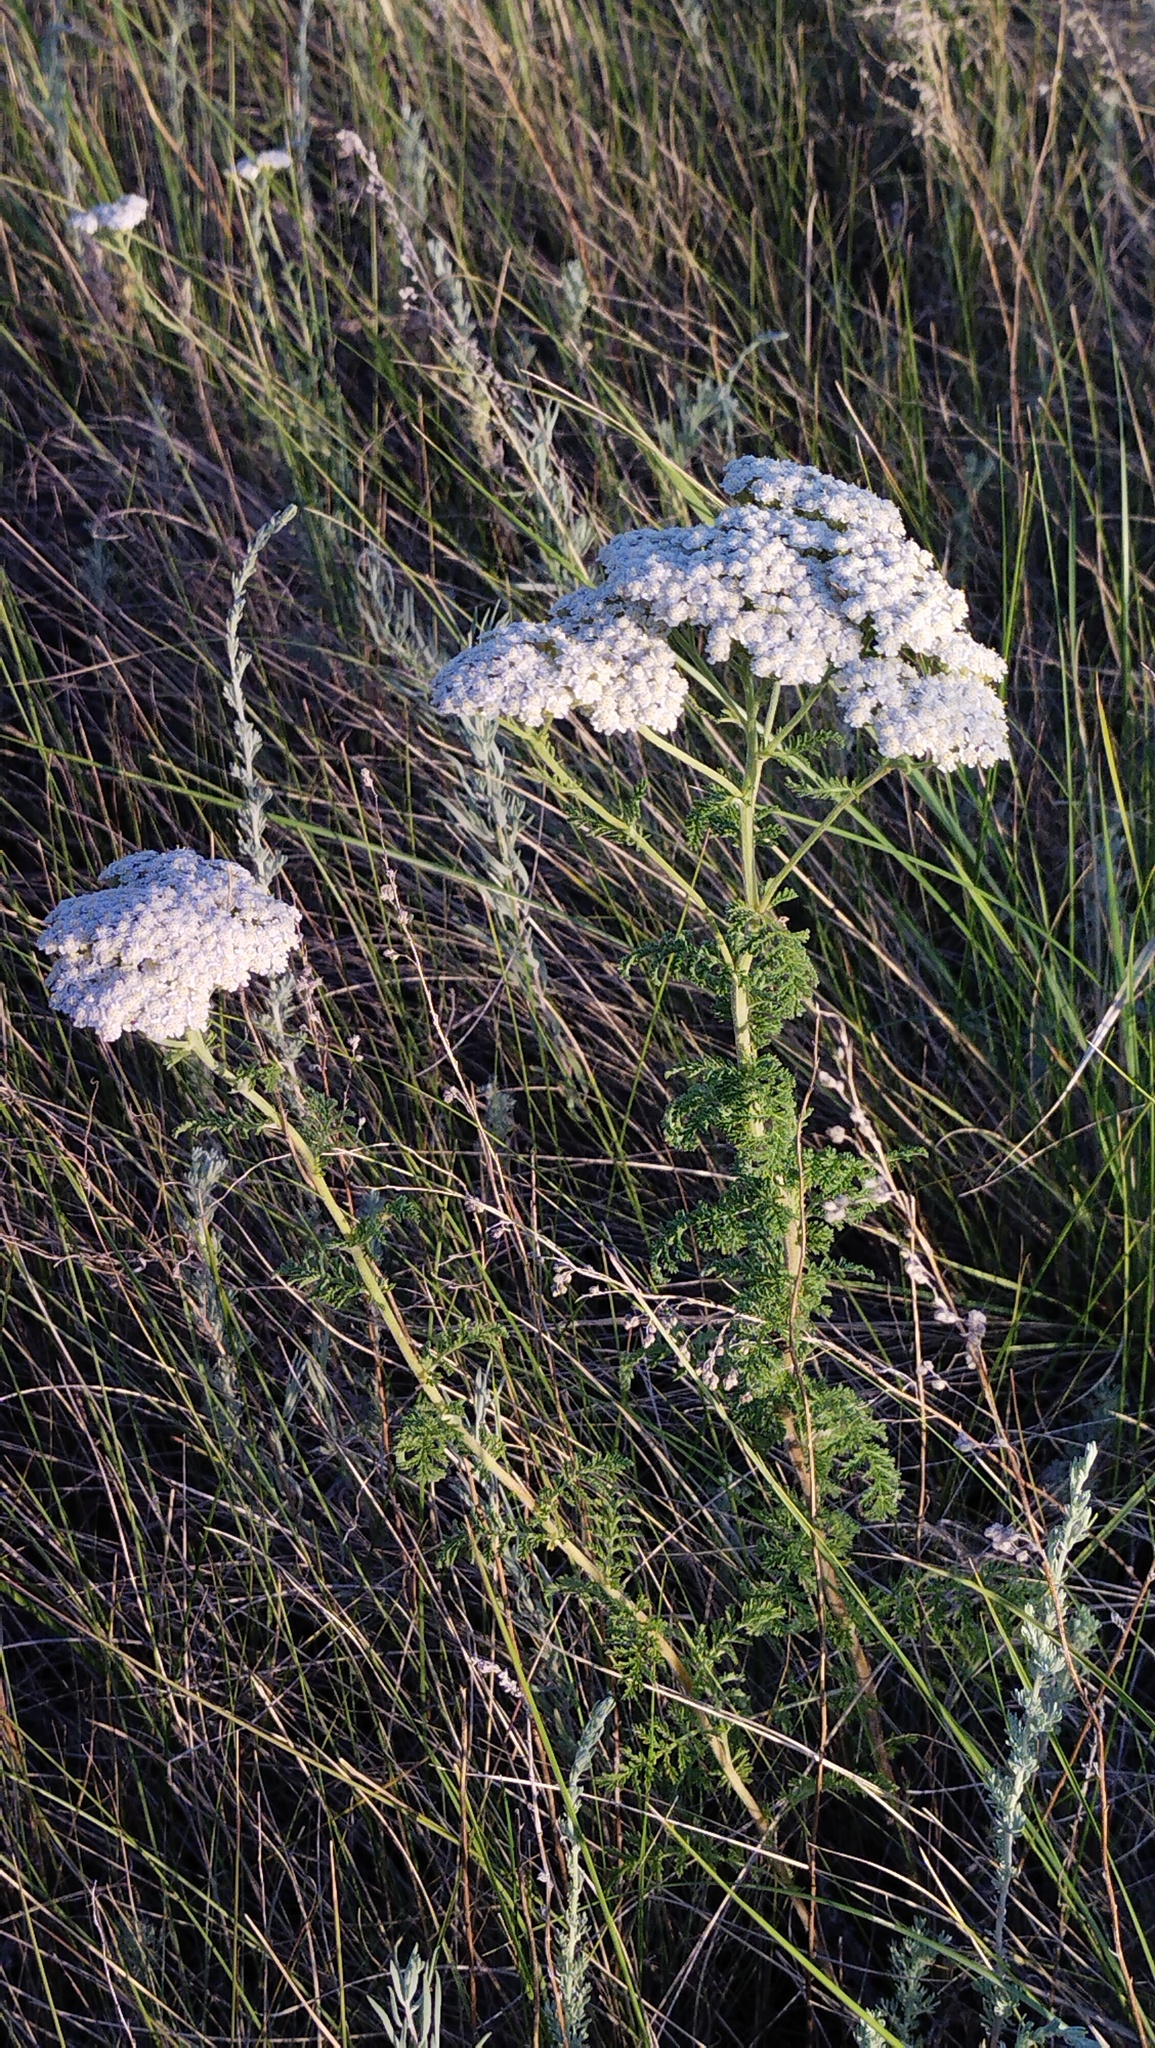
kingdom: Plantae
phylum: Tracheophyta
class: Magnoliopsida
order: Asterales
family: Asteraceae
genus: Achillea
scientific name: Achillea nobilis
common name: Noble yarrow
